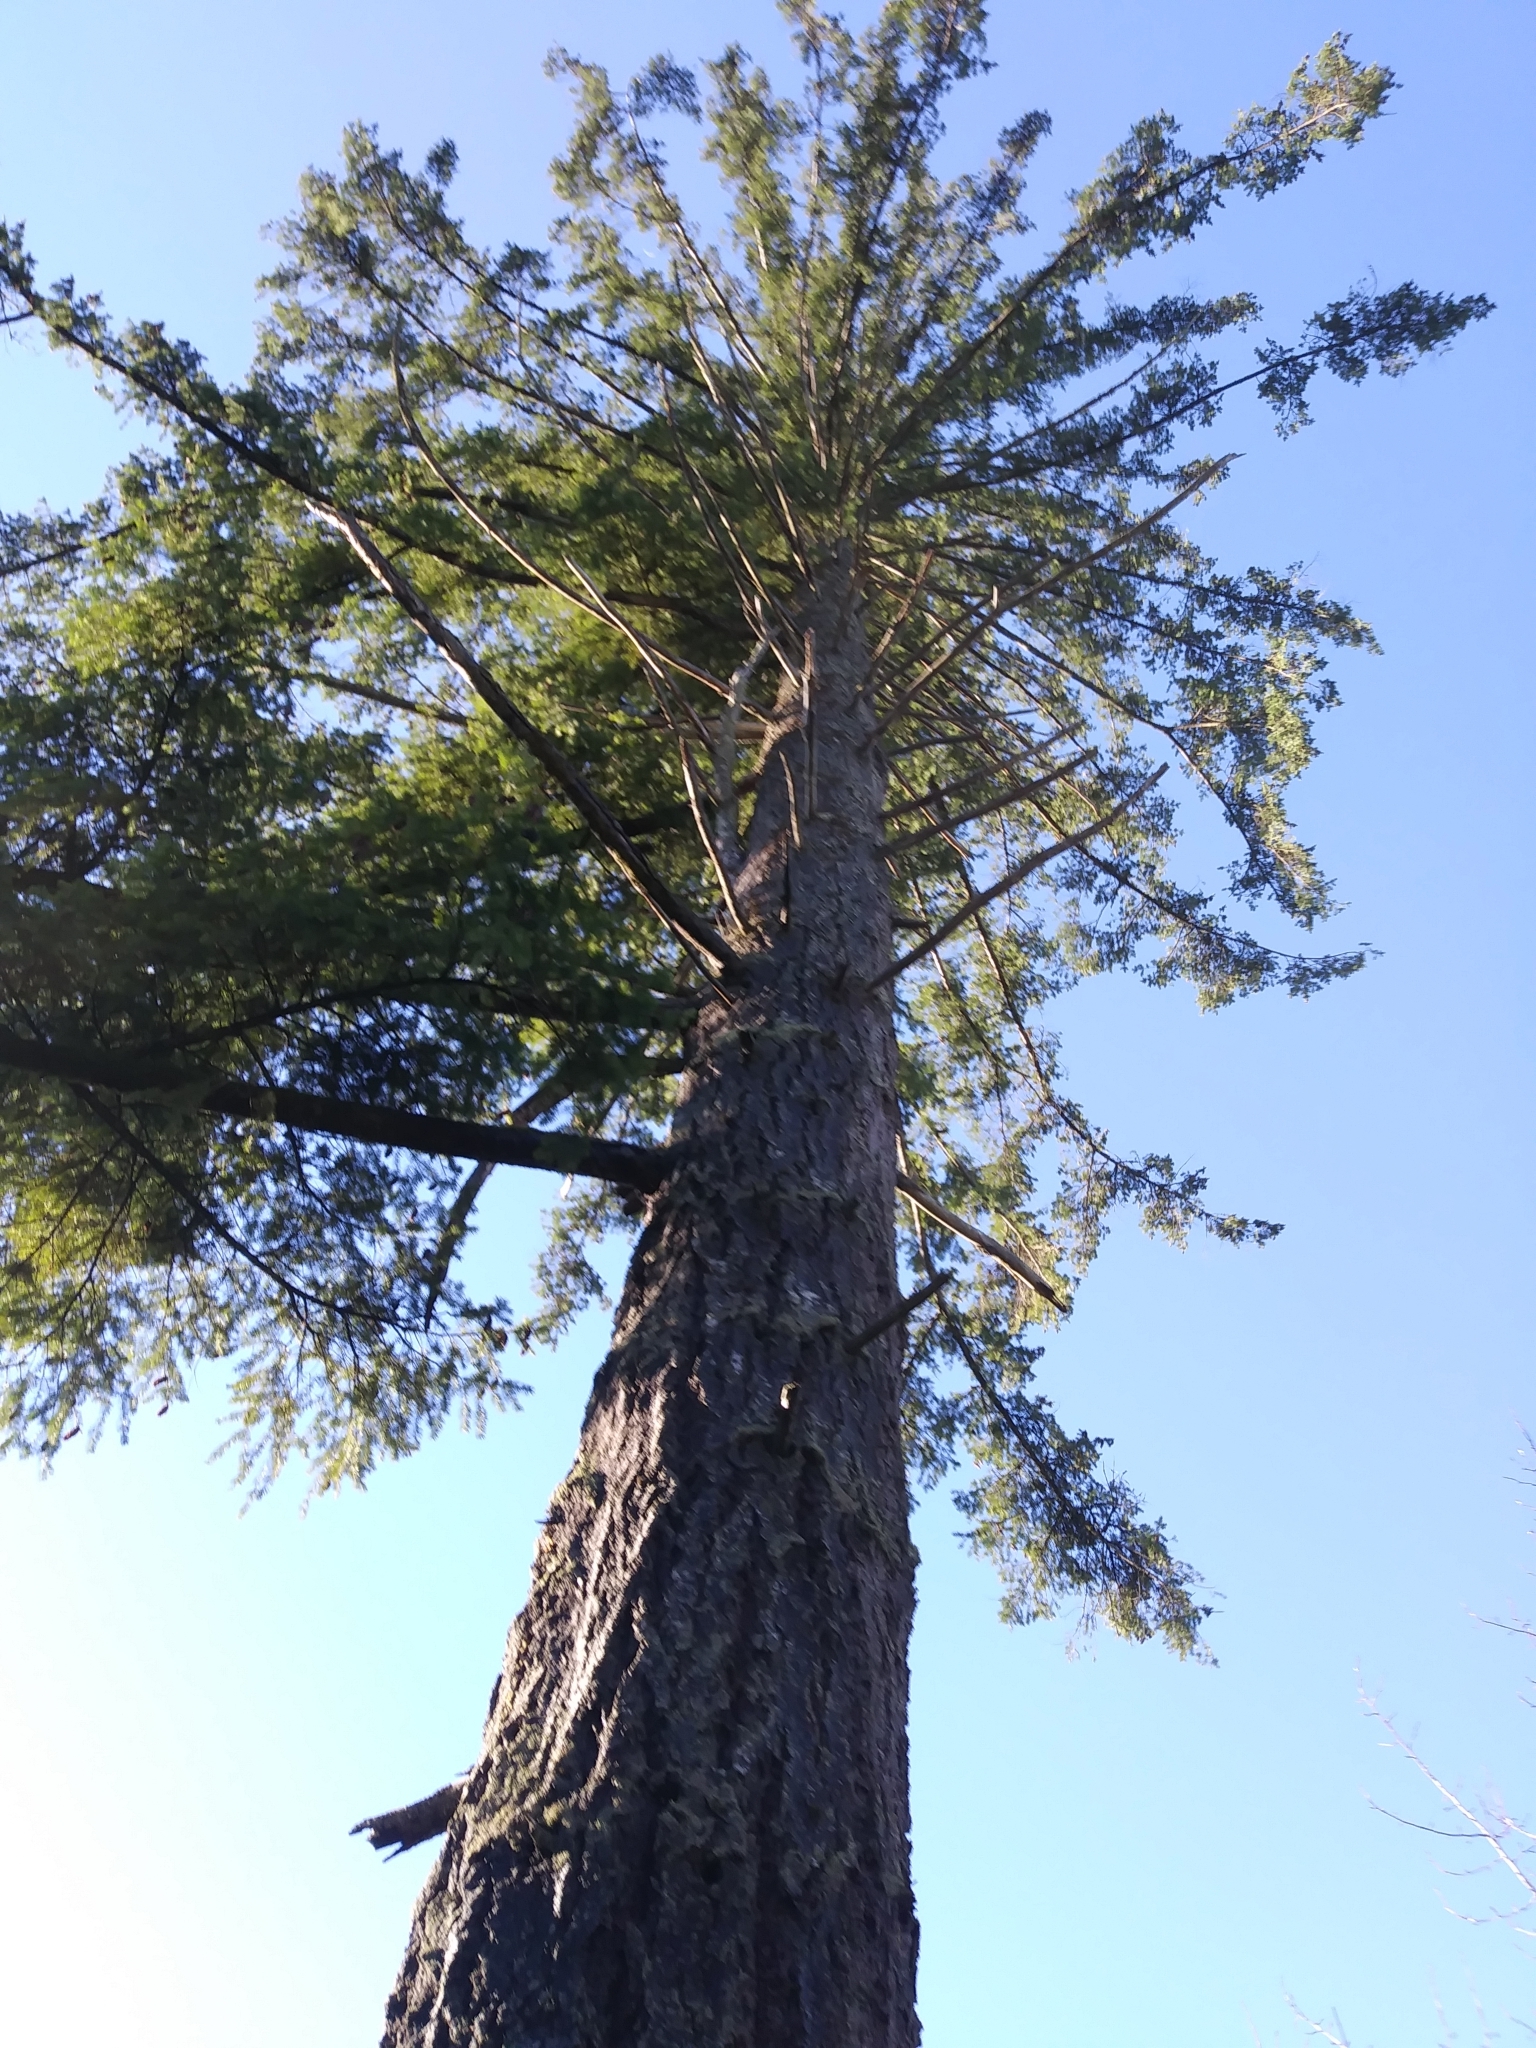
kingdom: Plantae
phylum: Tracheophyta
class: Pinopsida
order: Pinales
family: Pinaceae
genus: Pseudotsuga
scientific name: Pseudotsuga menziesii
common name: Douglas fir
